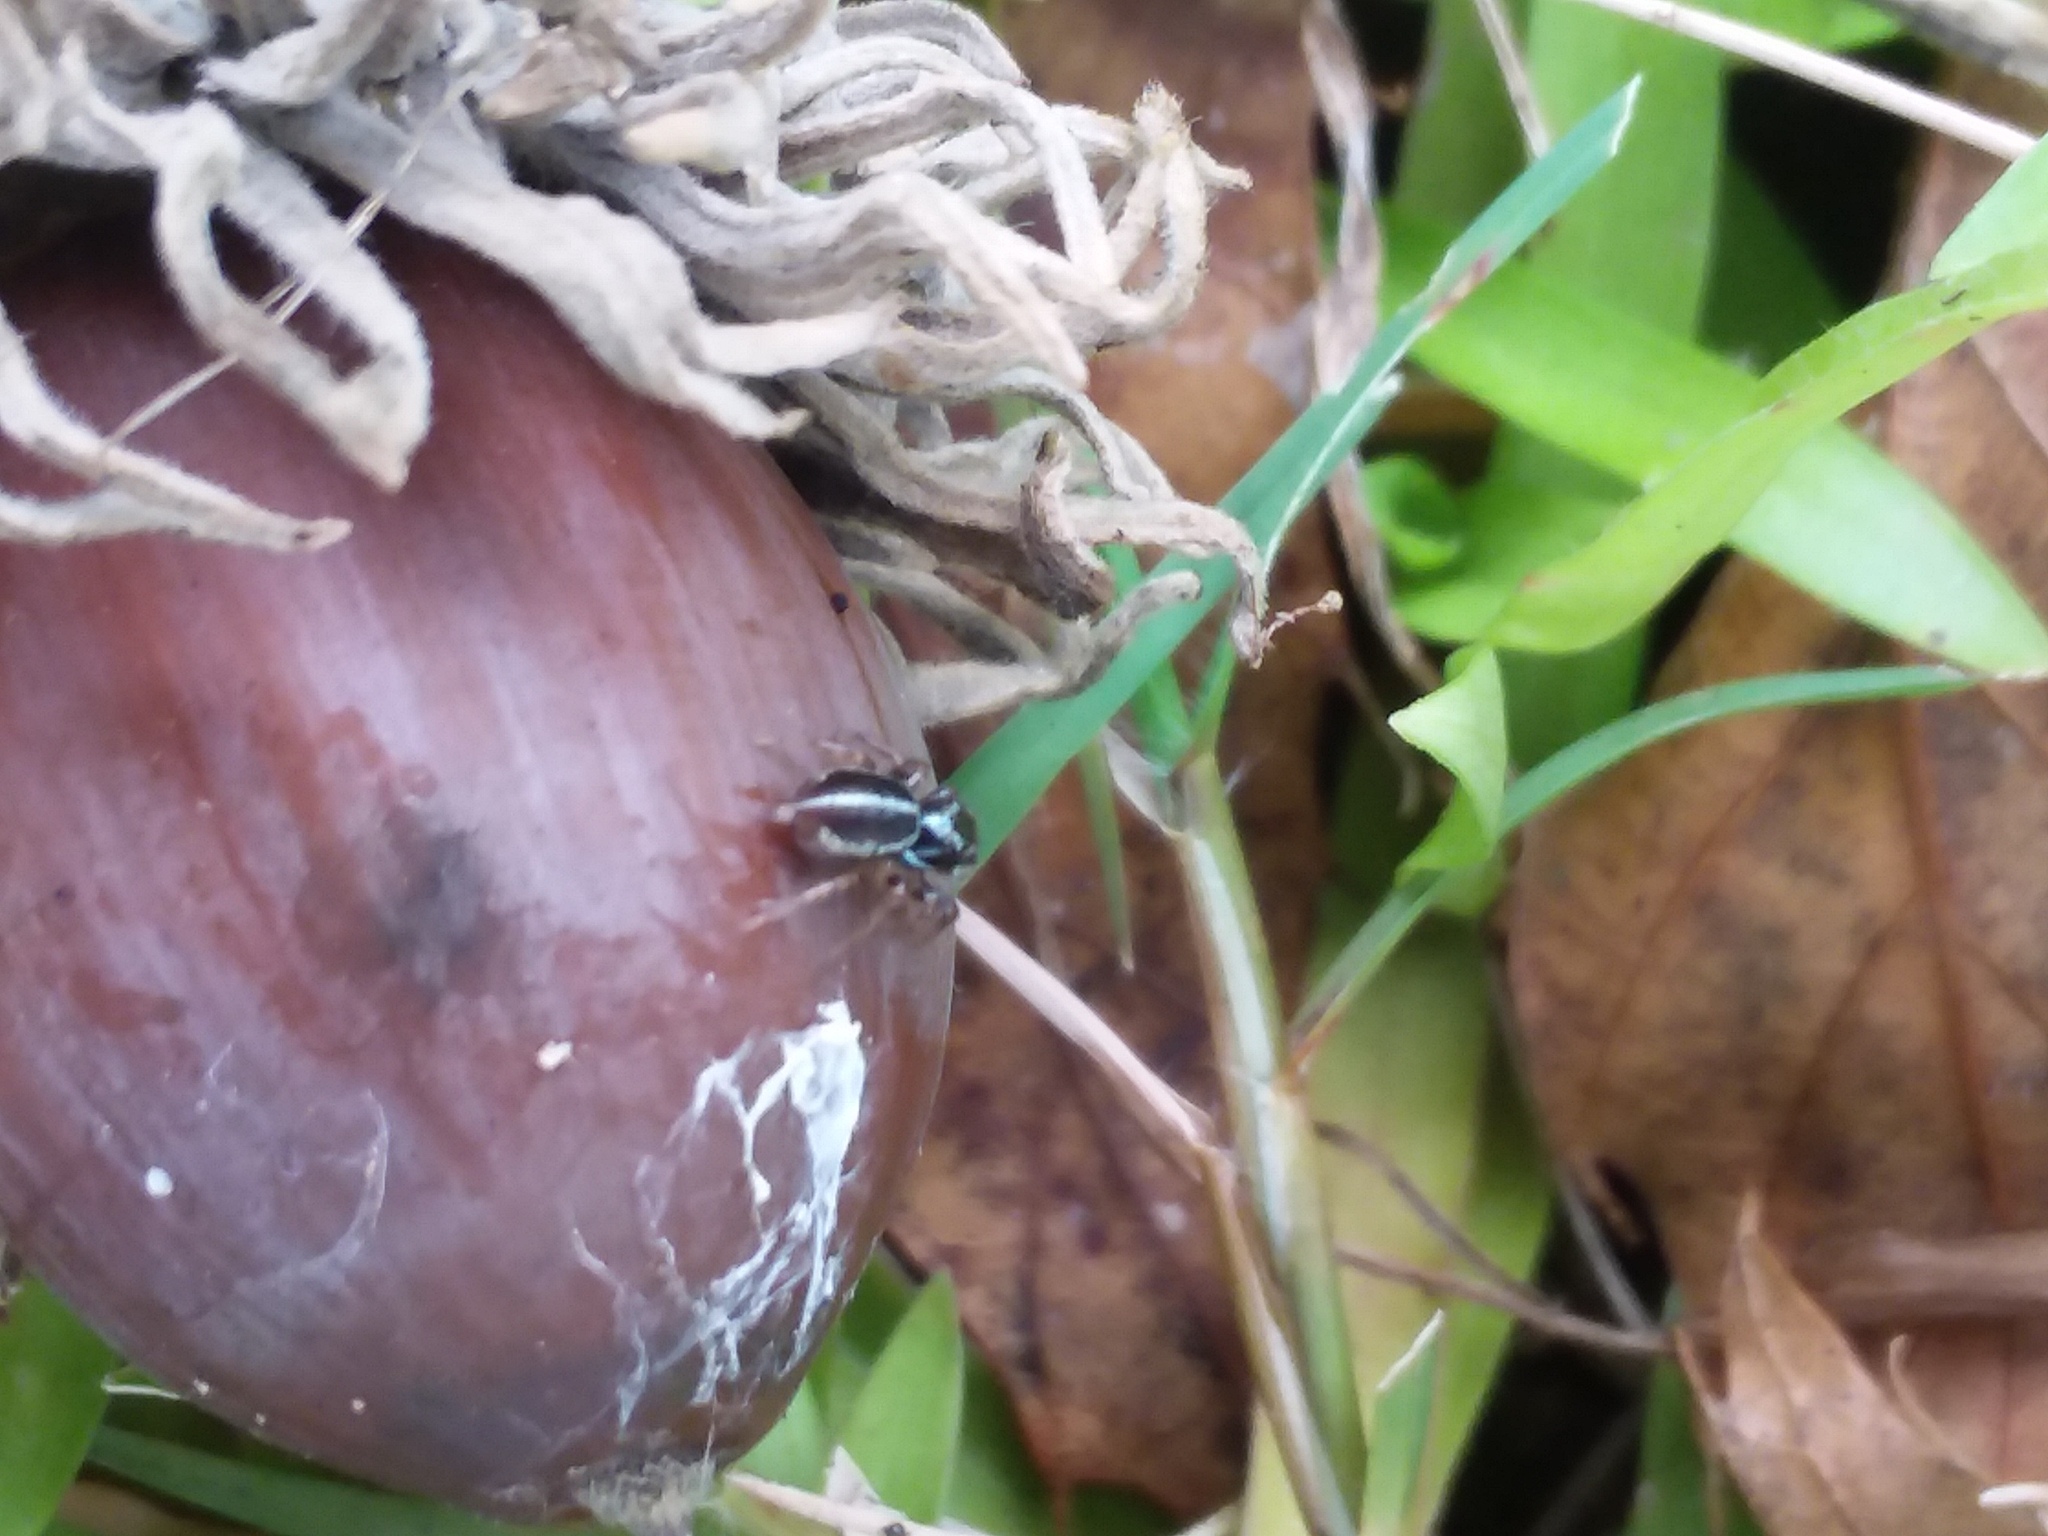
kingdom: Animalia
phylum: Arthropoda
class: Arachnida
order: Araneae
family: Salticidae
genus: Anasaitis
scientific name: Anasaitis canosa
